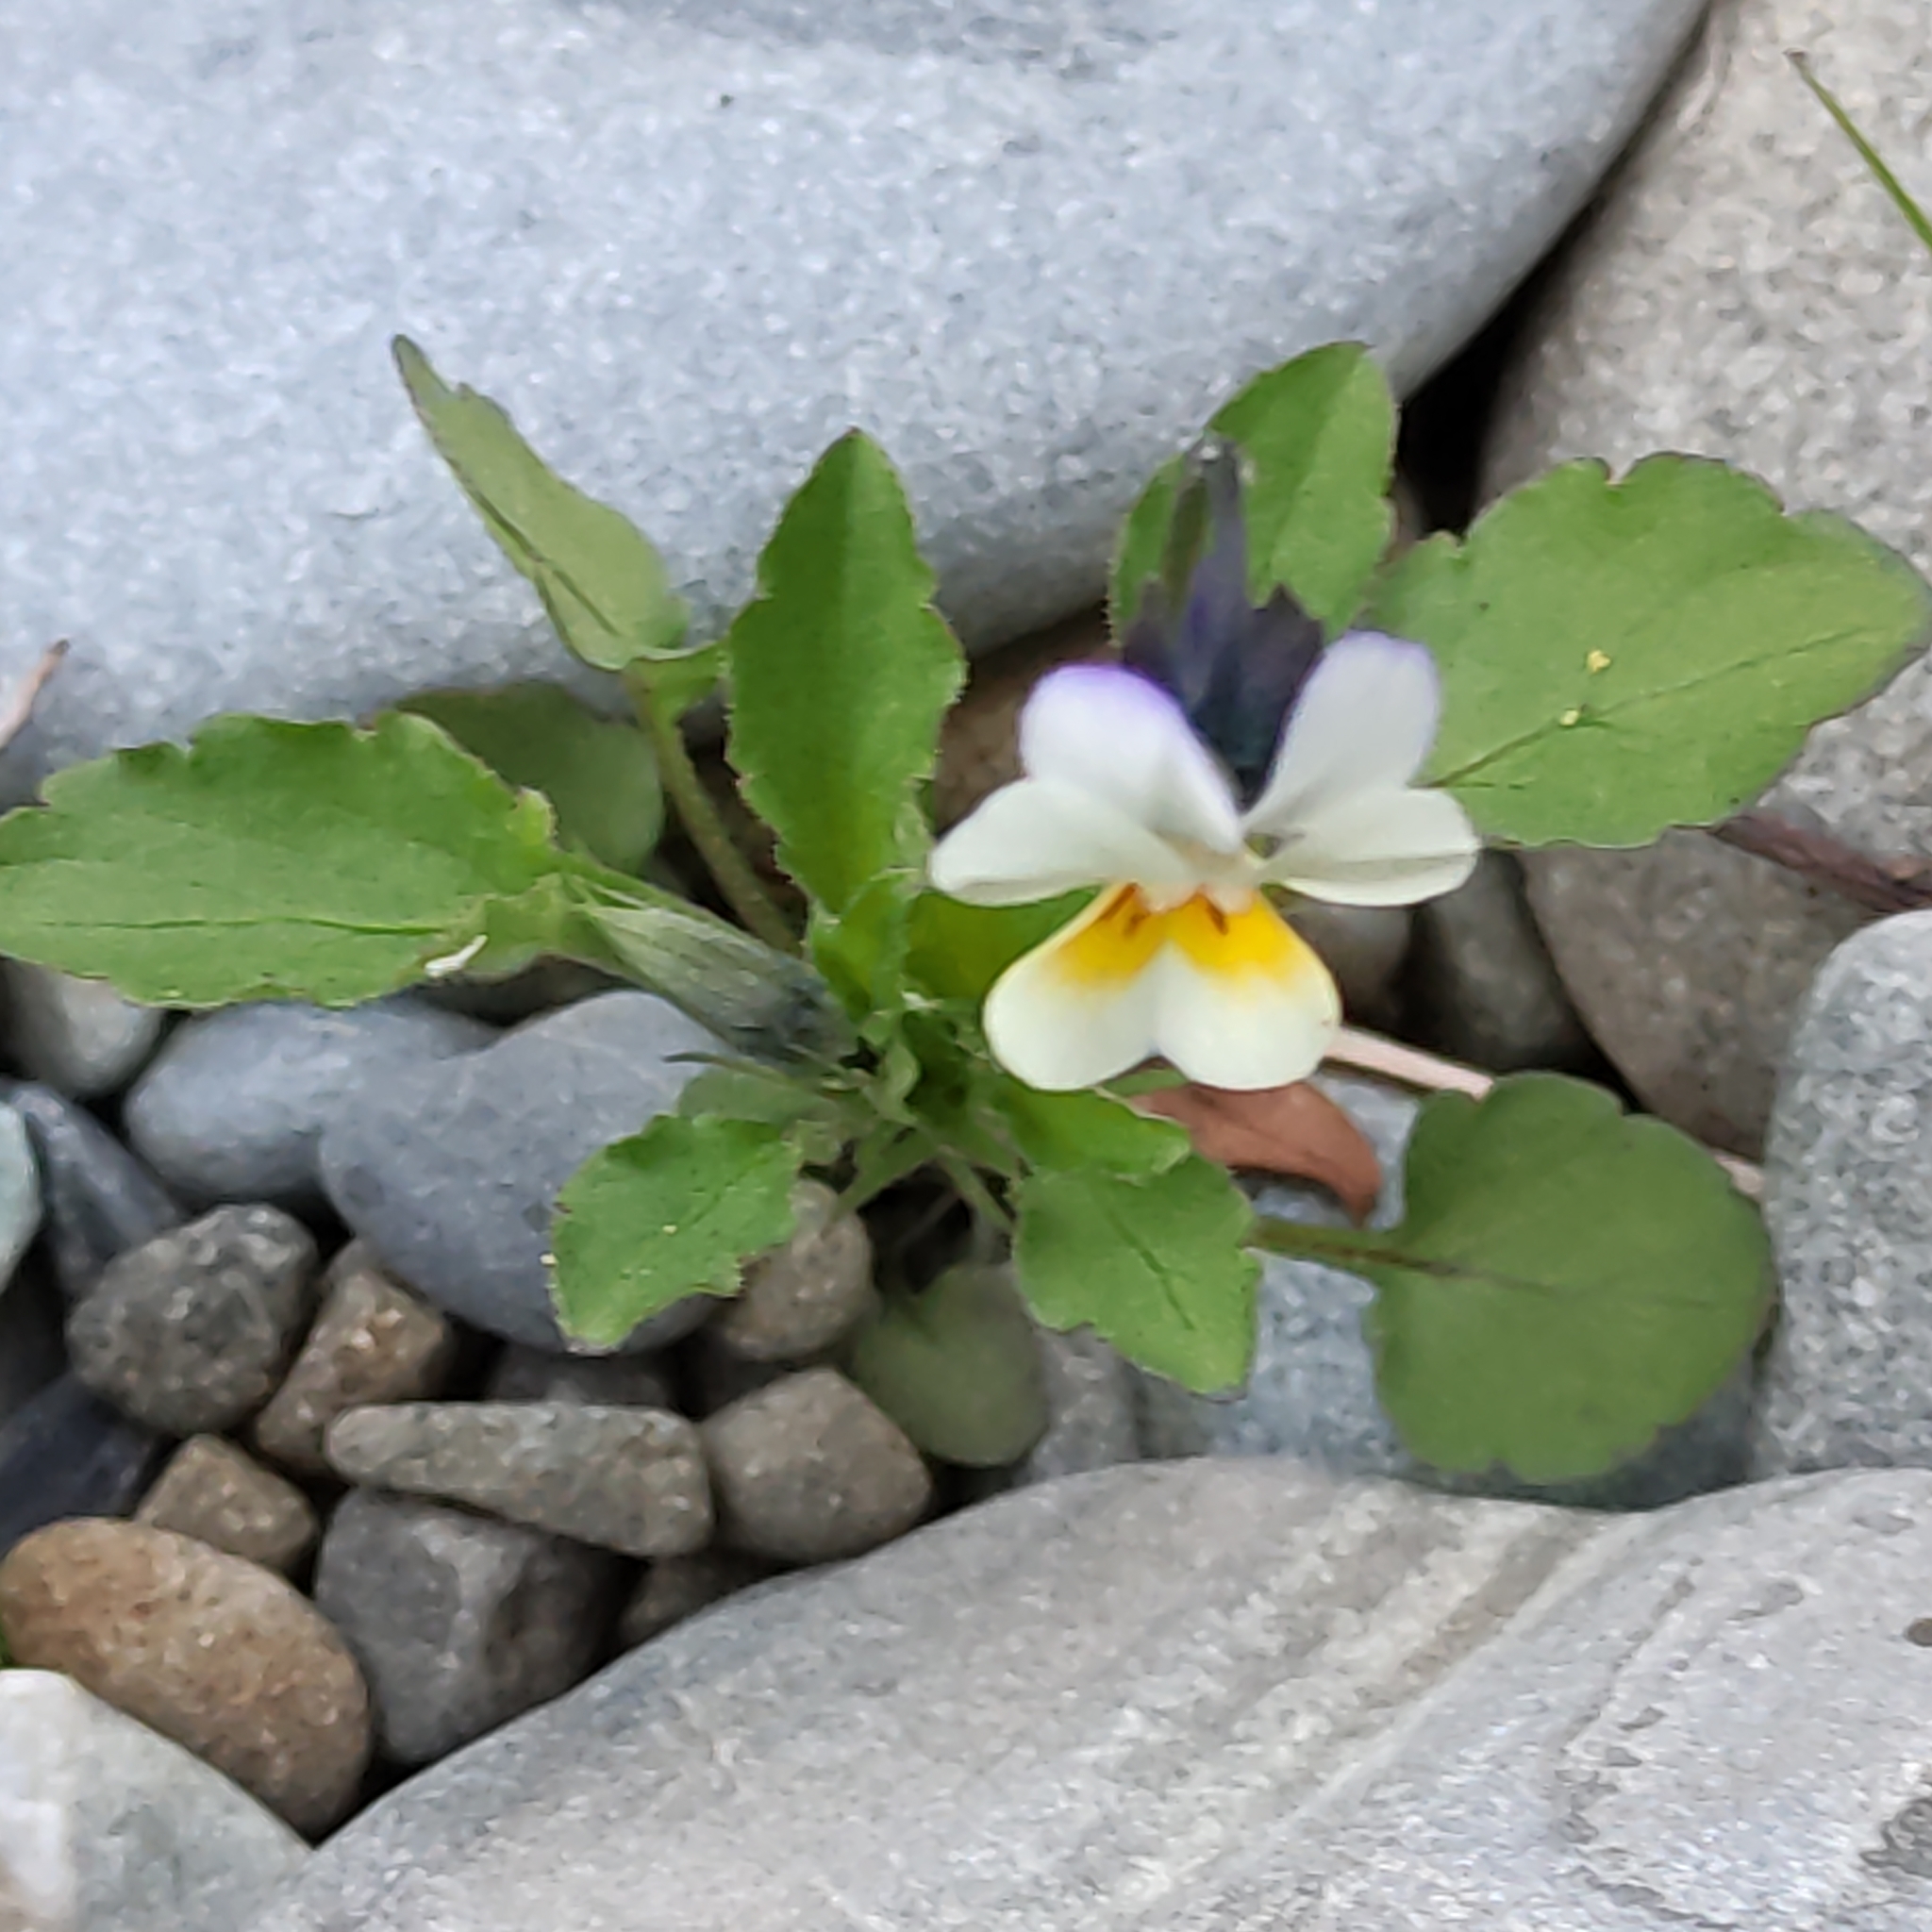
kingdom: Plantae
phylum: Tracheophyta
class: Magnoliopsida
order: Malpighiales
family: Violaceae
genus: Viola
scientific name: Viola arvensis
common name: Field pansy
